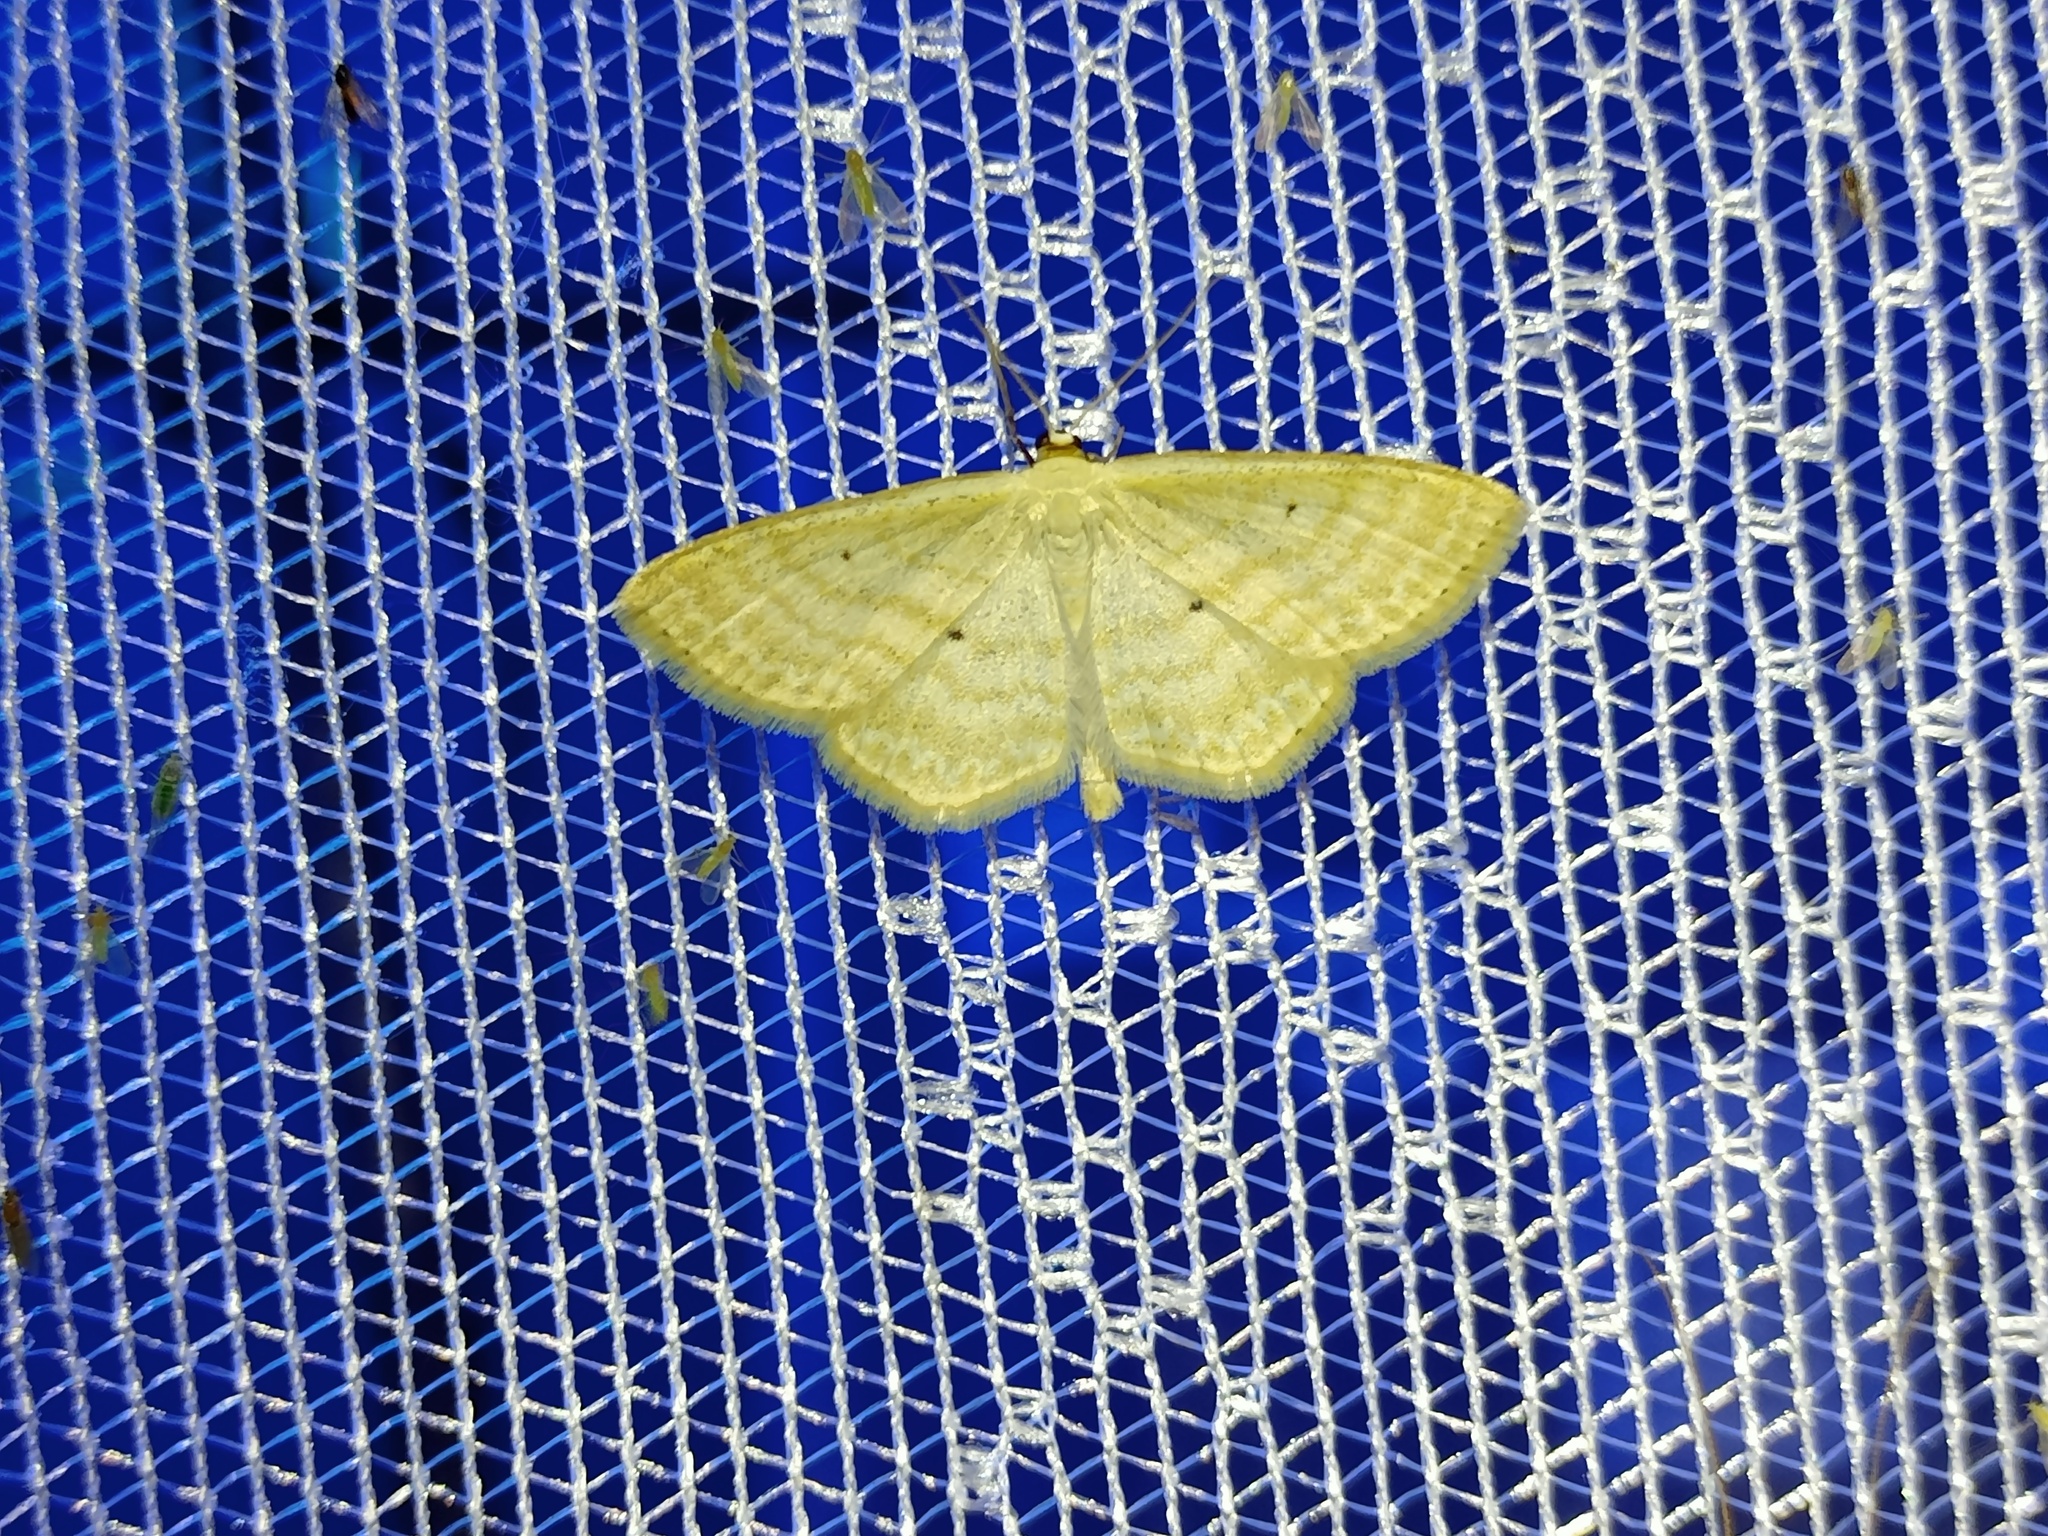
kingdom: Animalia
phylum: Arthropoda
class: Insecta
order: Lepidoptera
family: Geometridae
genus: Scopula
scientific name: Scopula immutata
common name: Lesser cream wave
